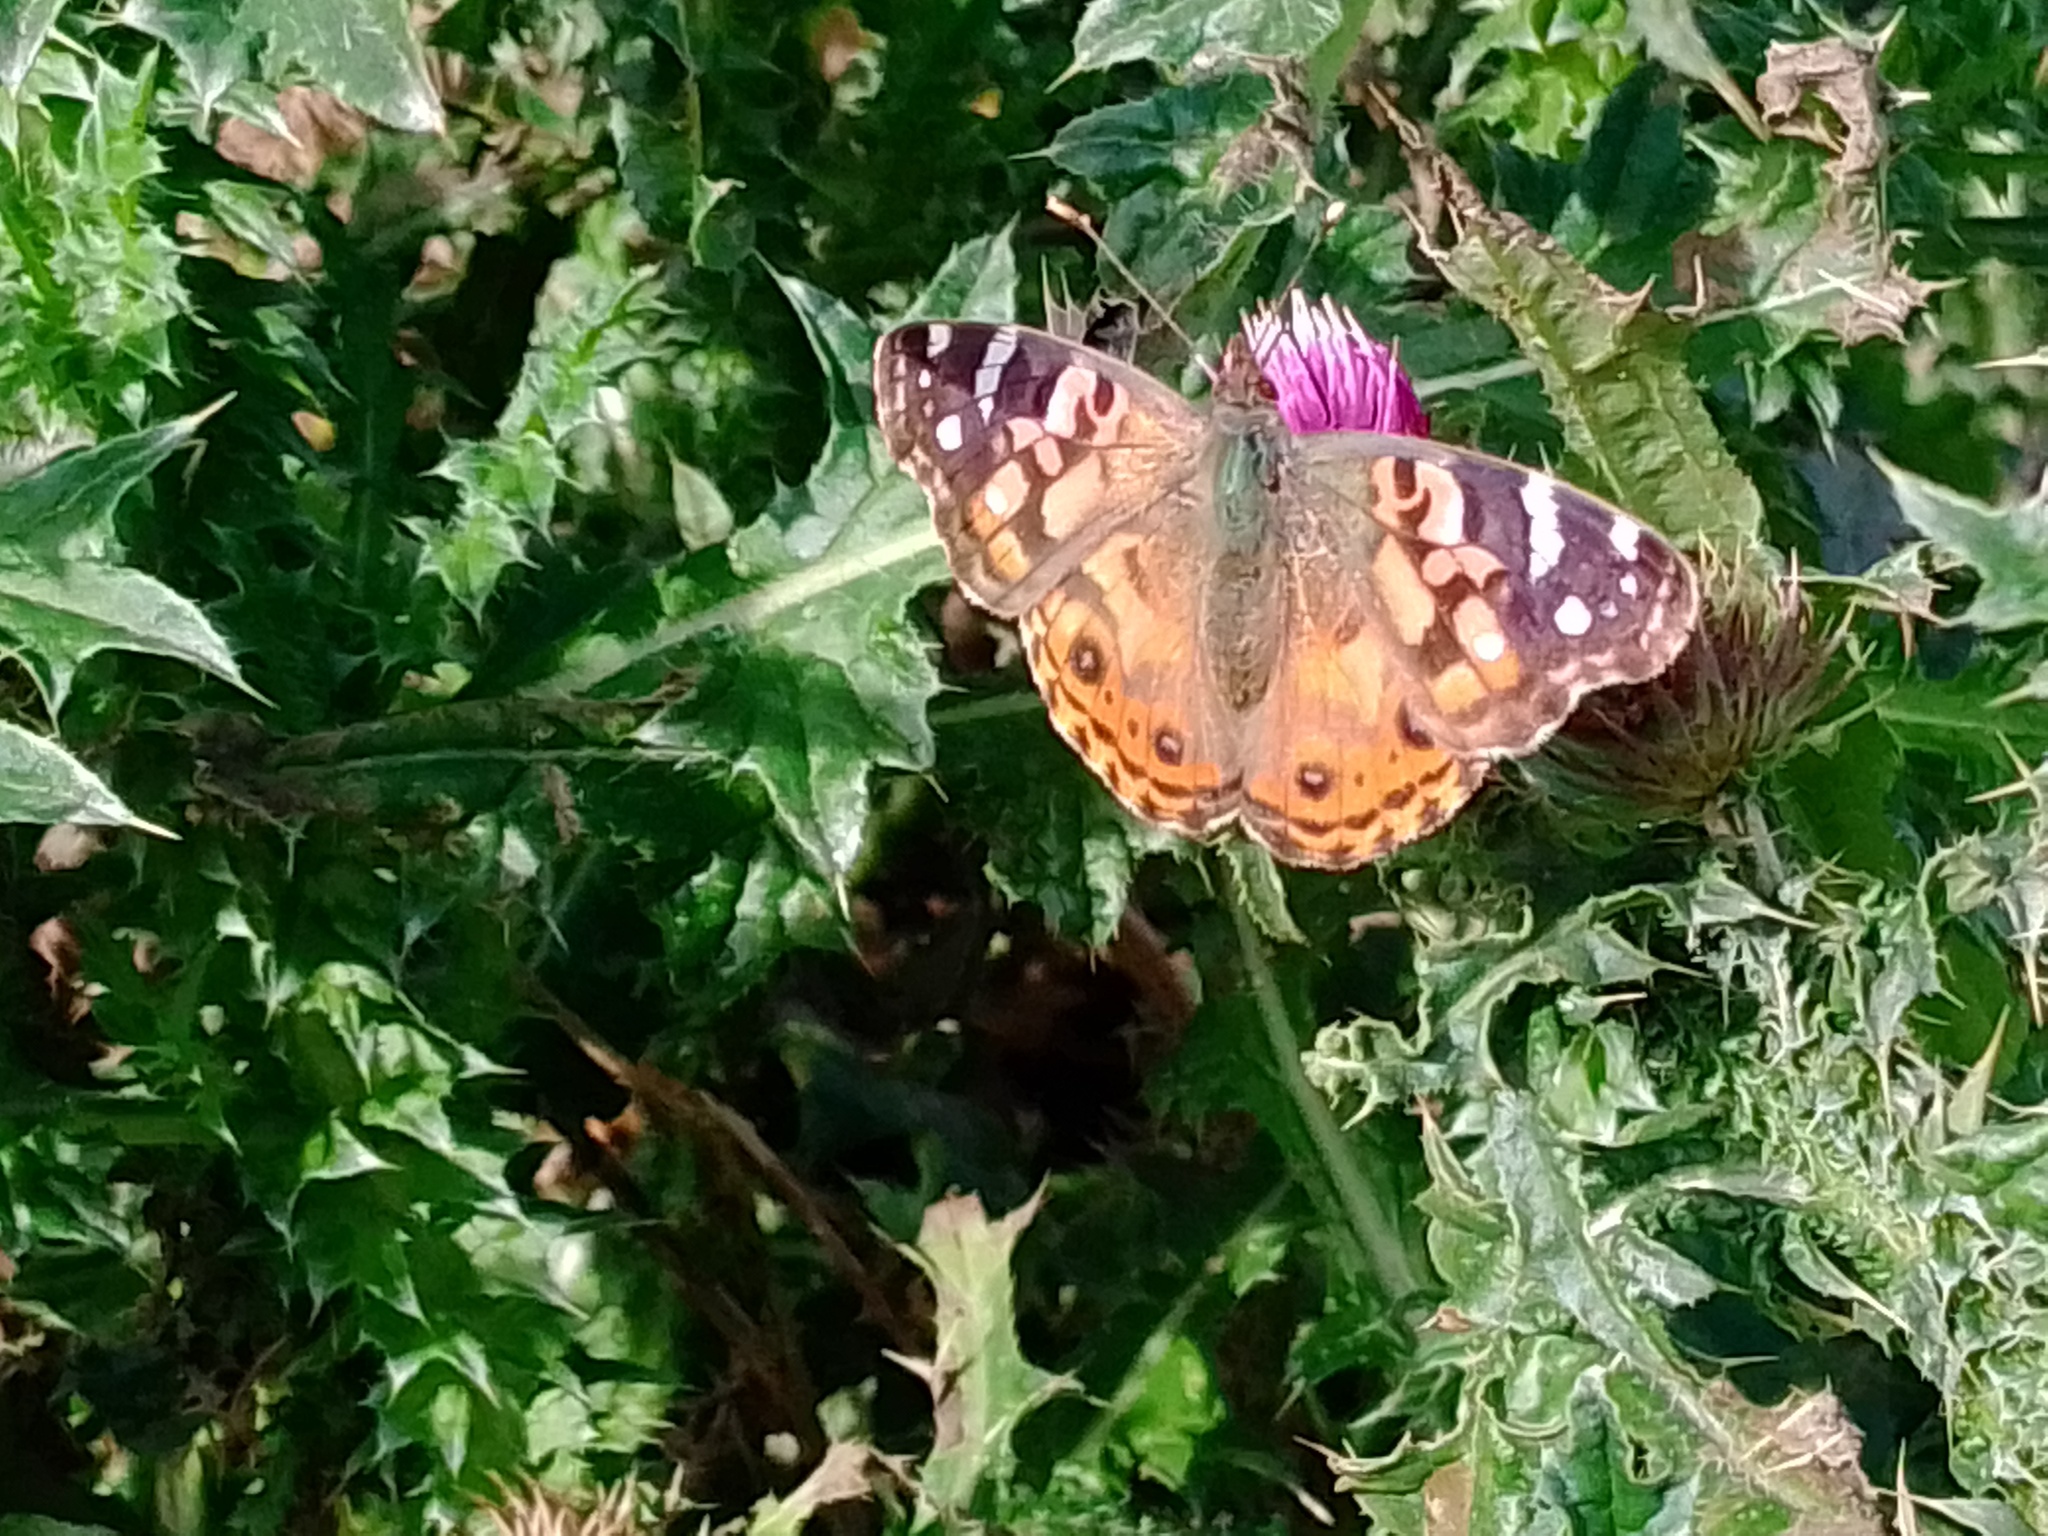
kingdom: Animalia
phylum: Arthropoda
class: Insecta
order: Lepidoptera
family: Nymphalidae
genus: Vanessa
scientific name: Vanessa braziliensis
